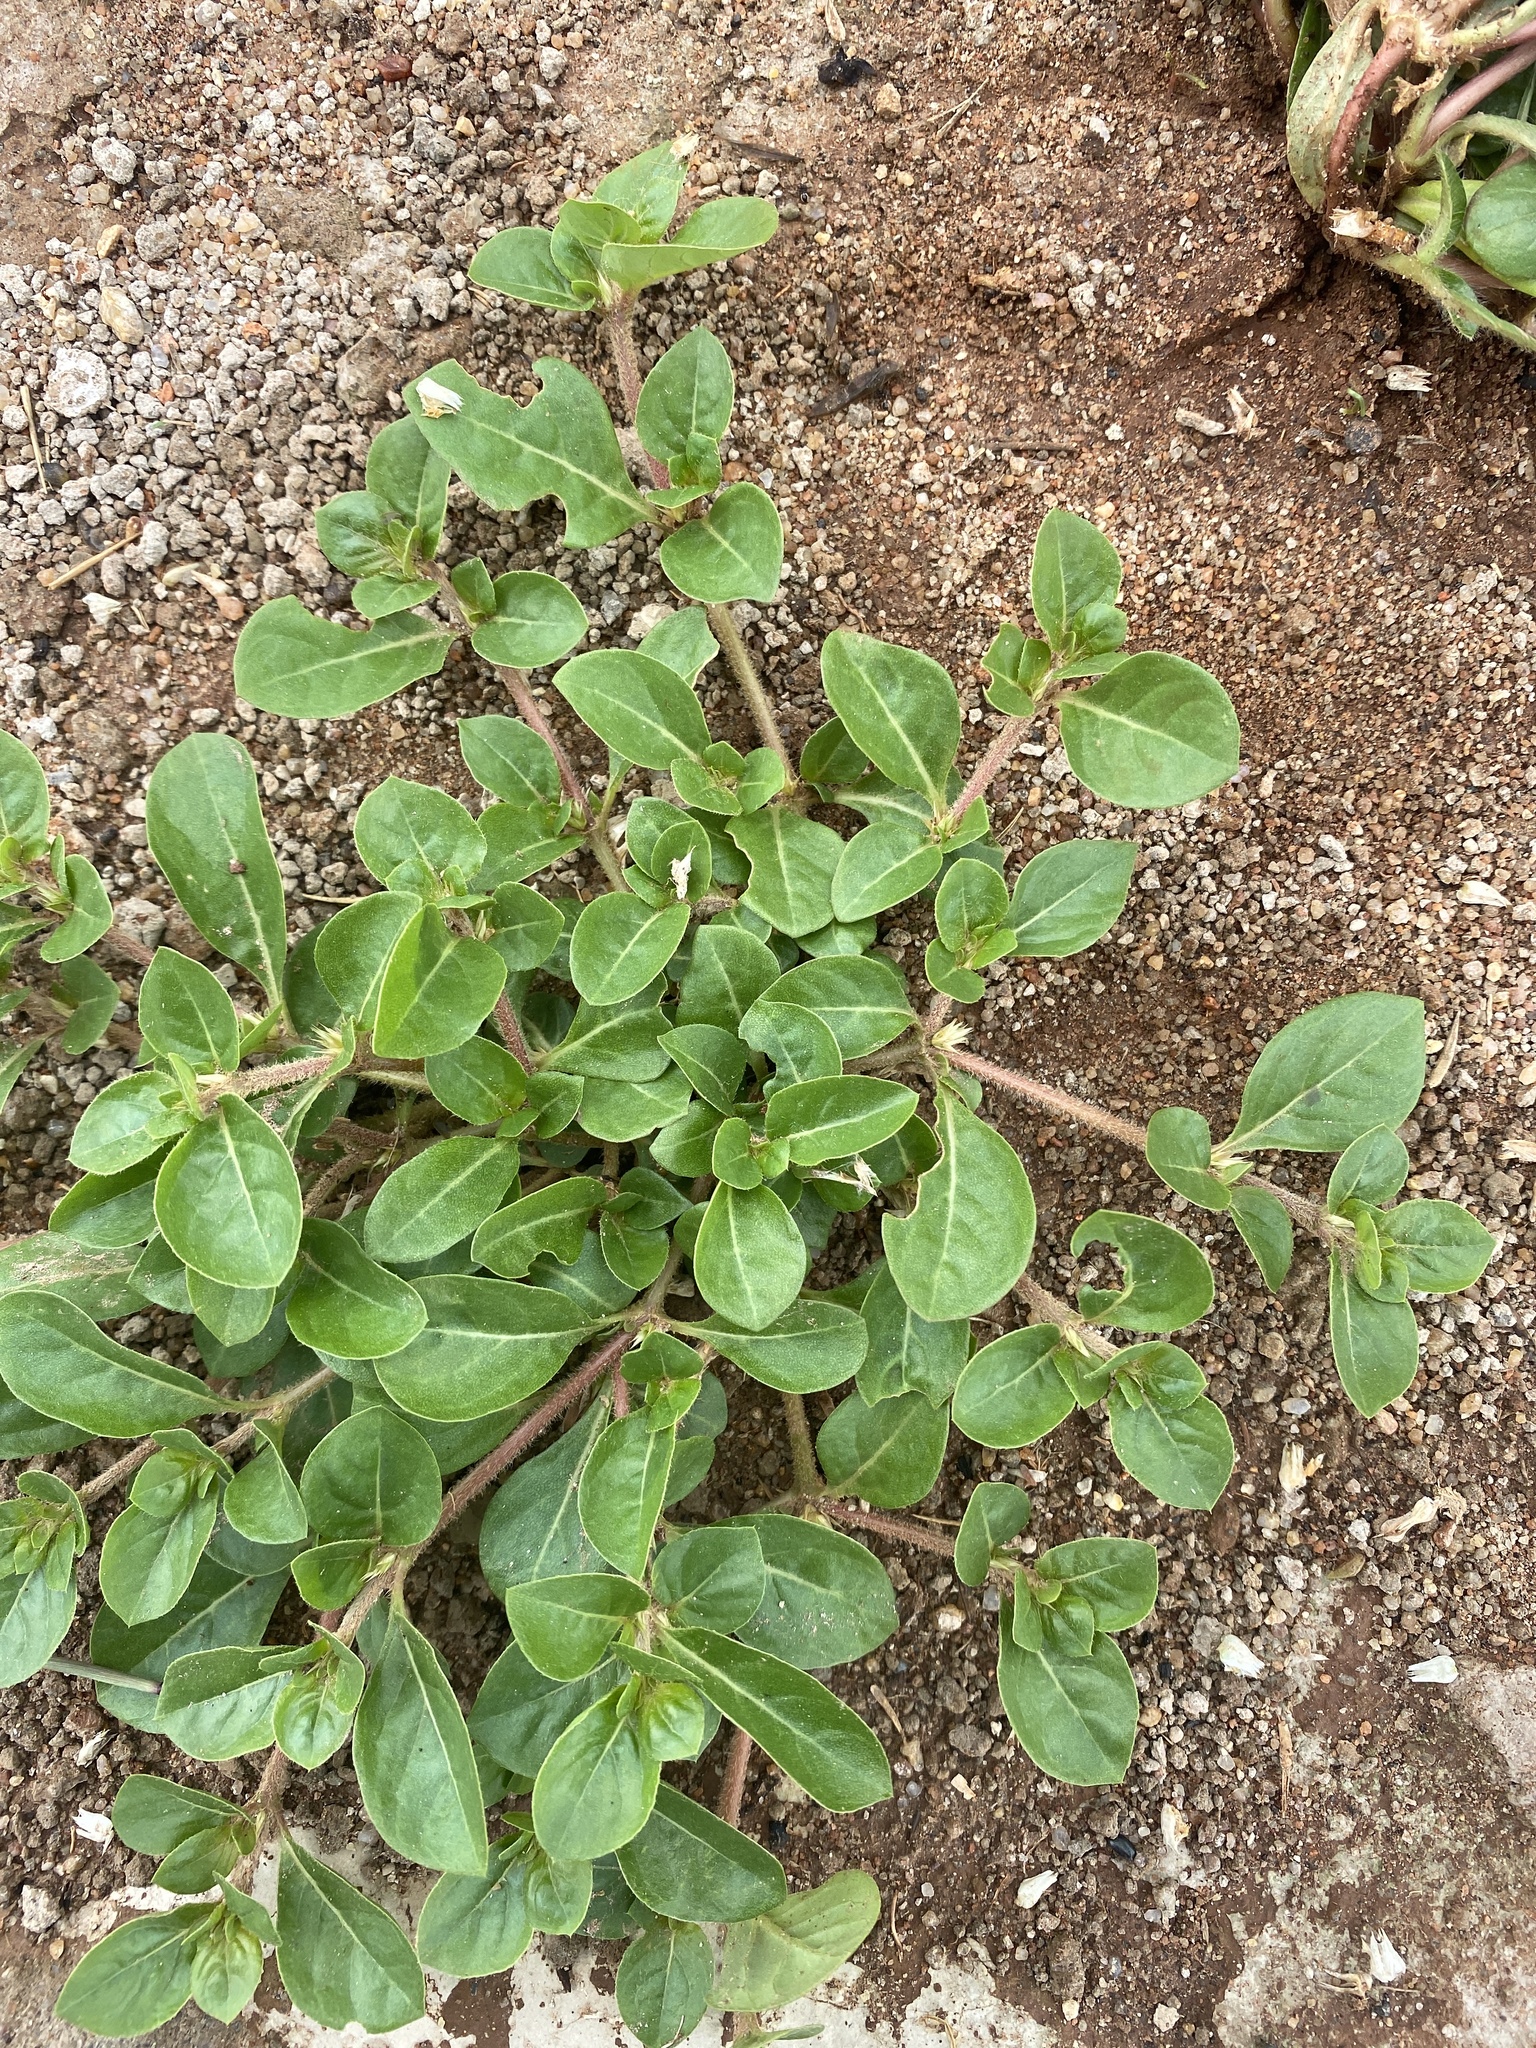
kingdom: Plantae
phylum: Tracheophyta
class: Magnoliopsida
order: Caryophyllales
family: Amaranthaceae
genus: Alternanthera
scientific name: Alternanthera pungens
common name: Khakiweed
